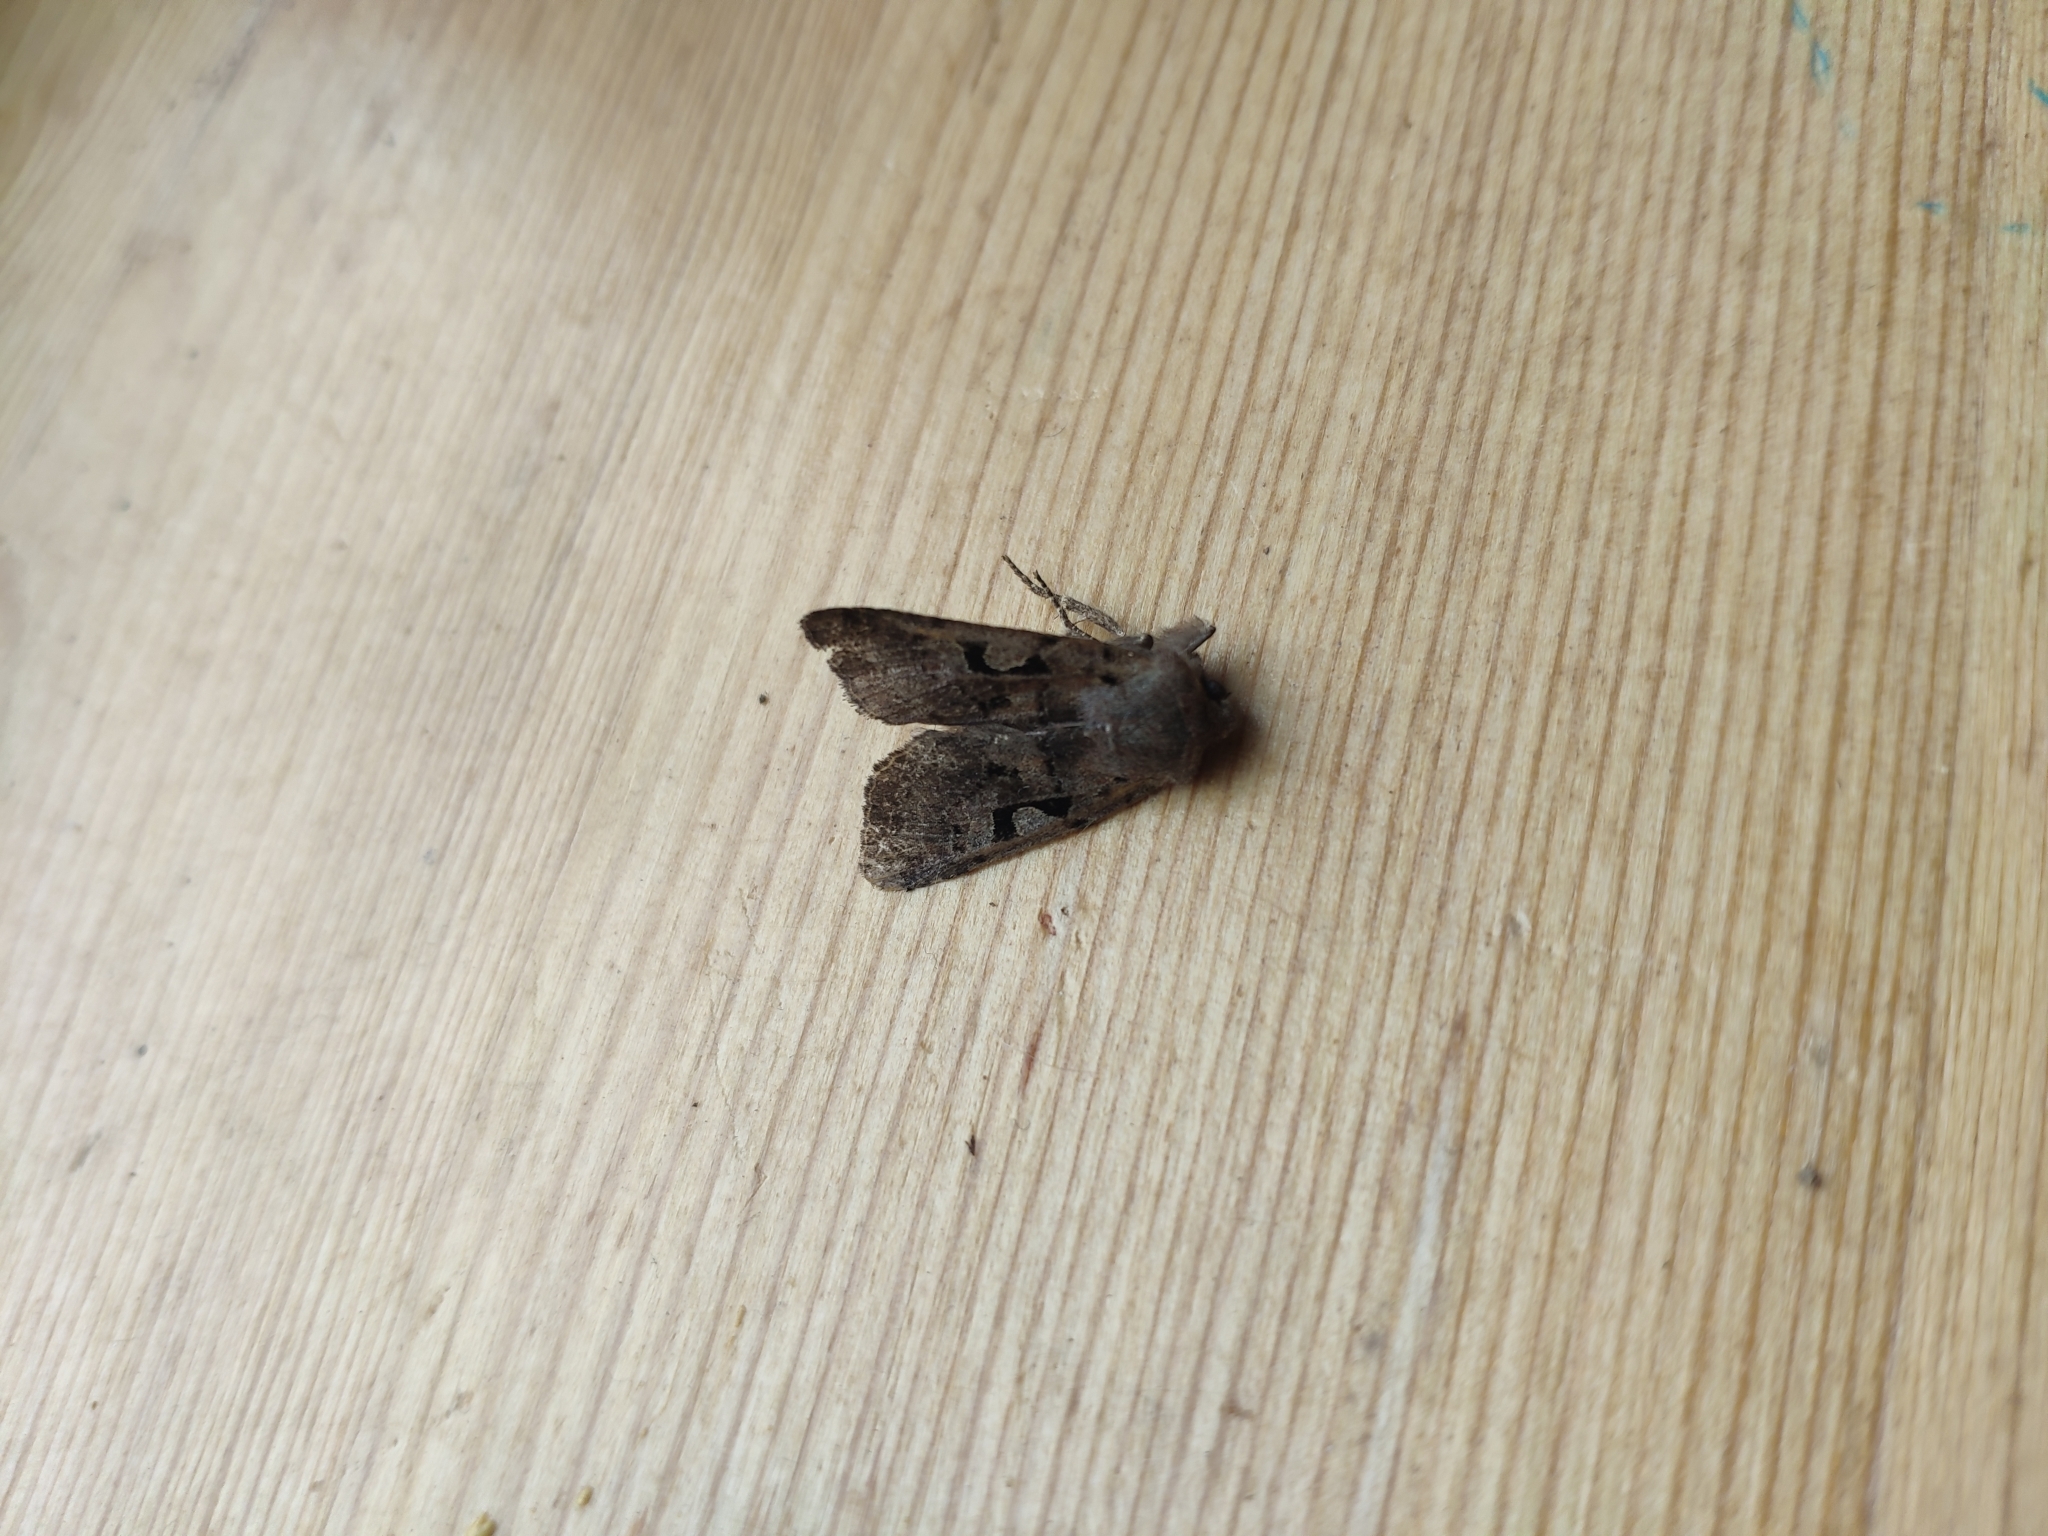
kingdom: Animalia
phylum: Arthropoda
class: Insecta
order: Lepidoptera
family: Noctuidae
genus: Orthosia
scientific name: Orthosia gothica
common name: Hebrew character
